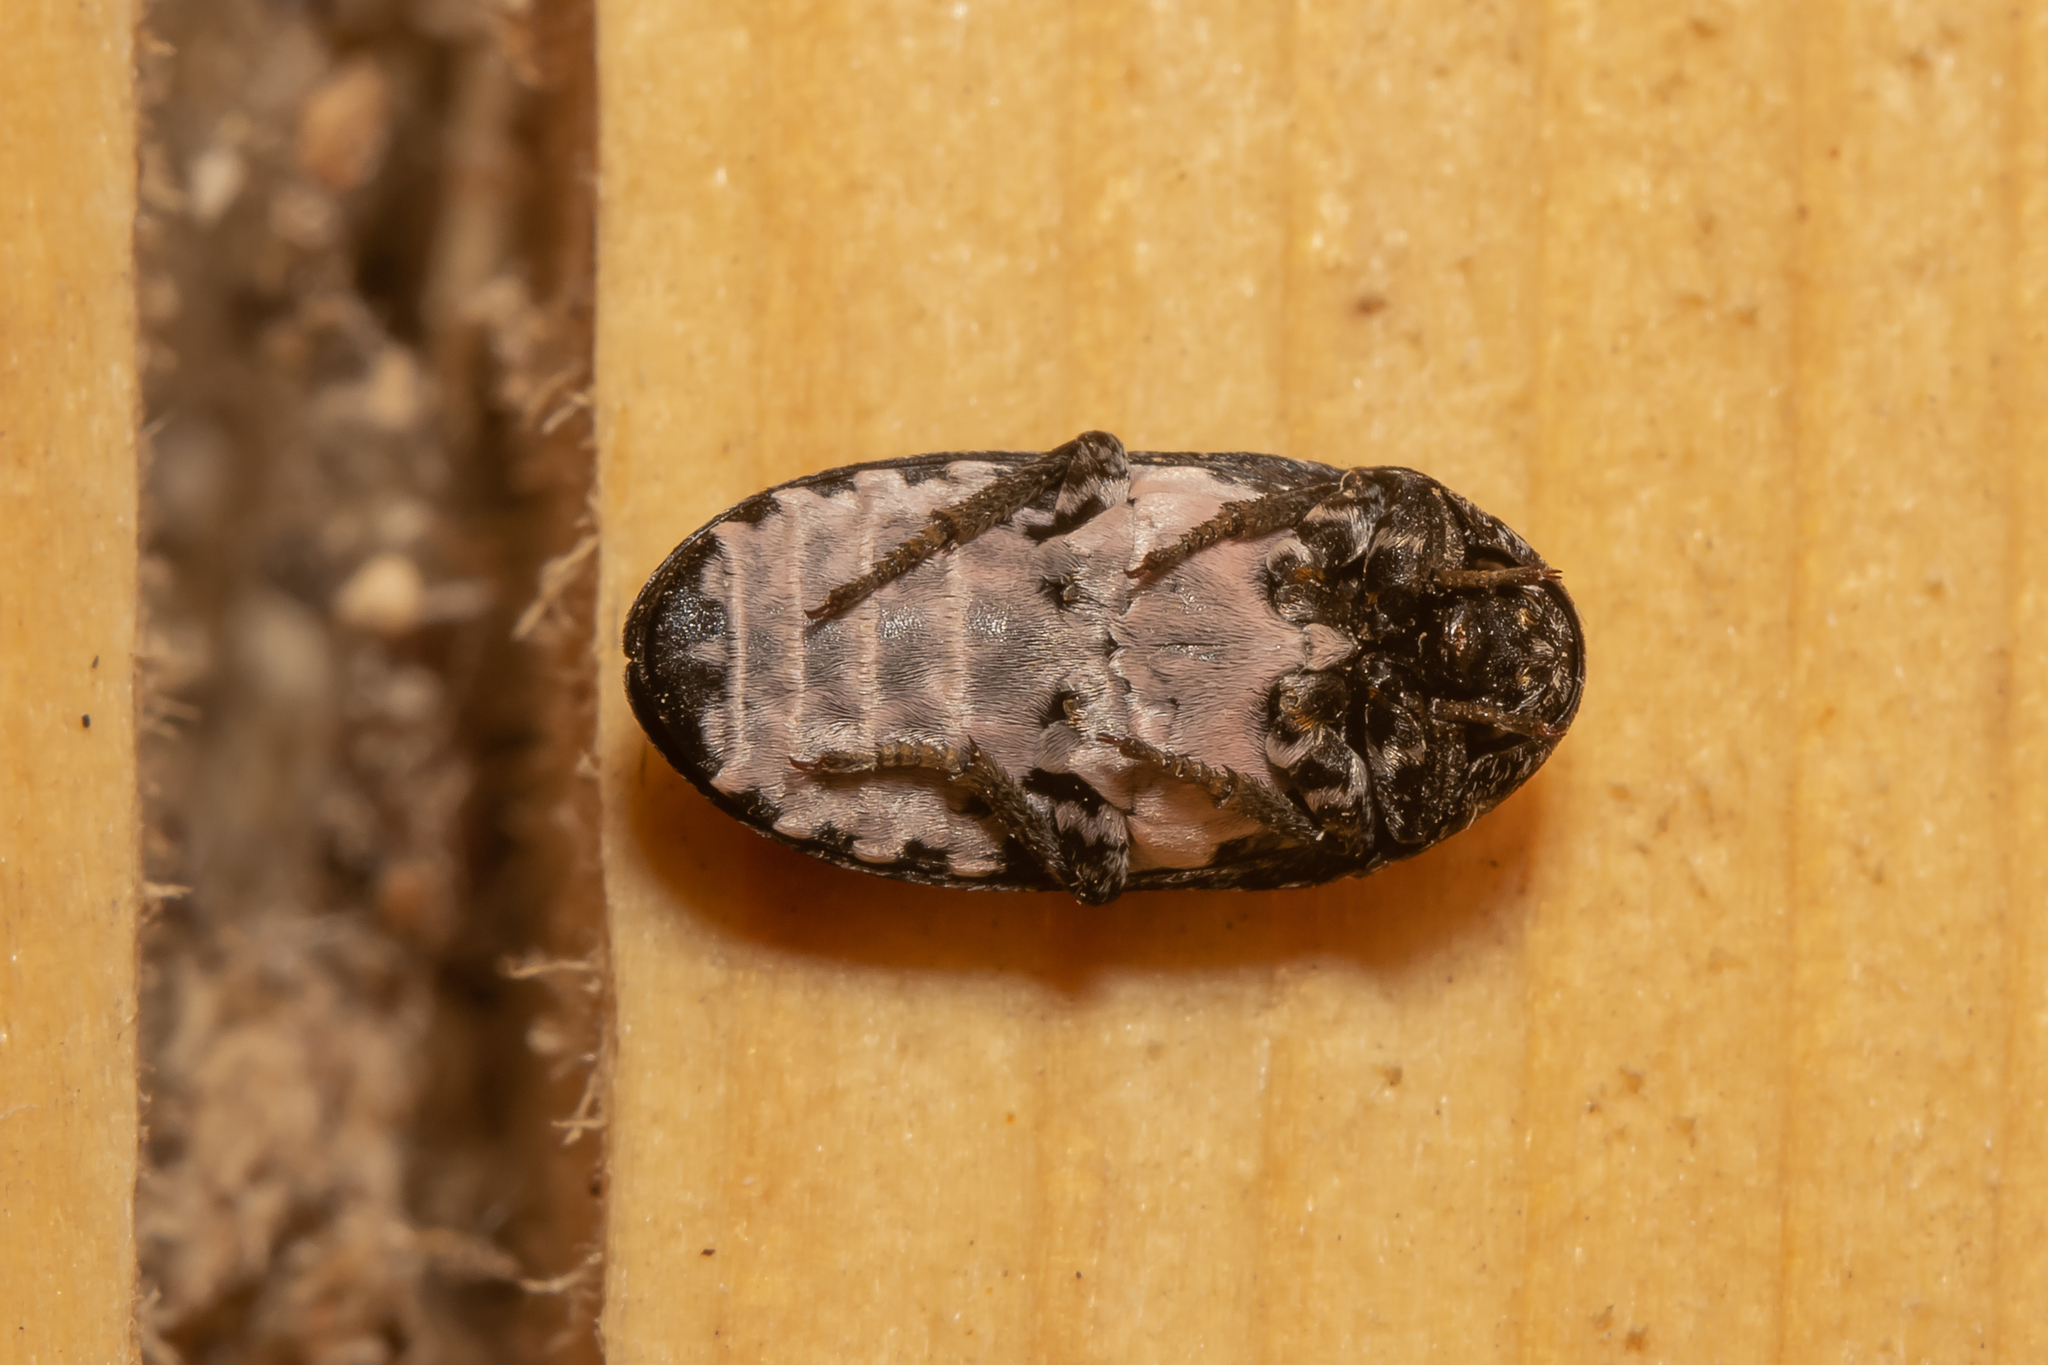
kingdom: Animalia
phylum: Arthropoda
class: Insecta
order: Coleoptera
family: Dermestidae
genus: Dermestes
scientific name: Dermestes murinus
